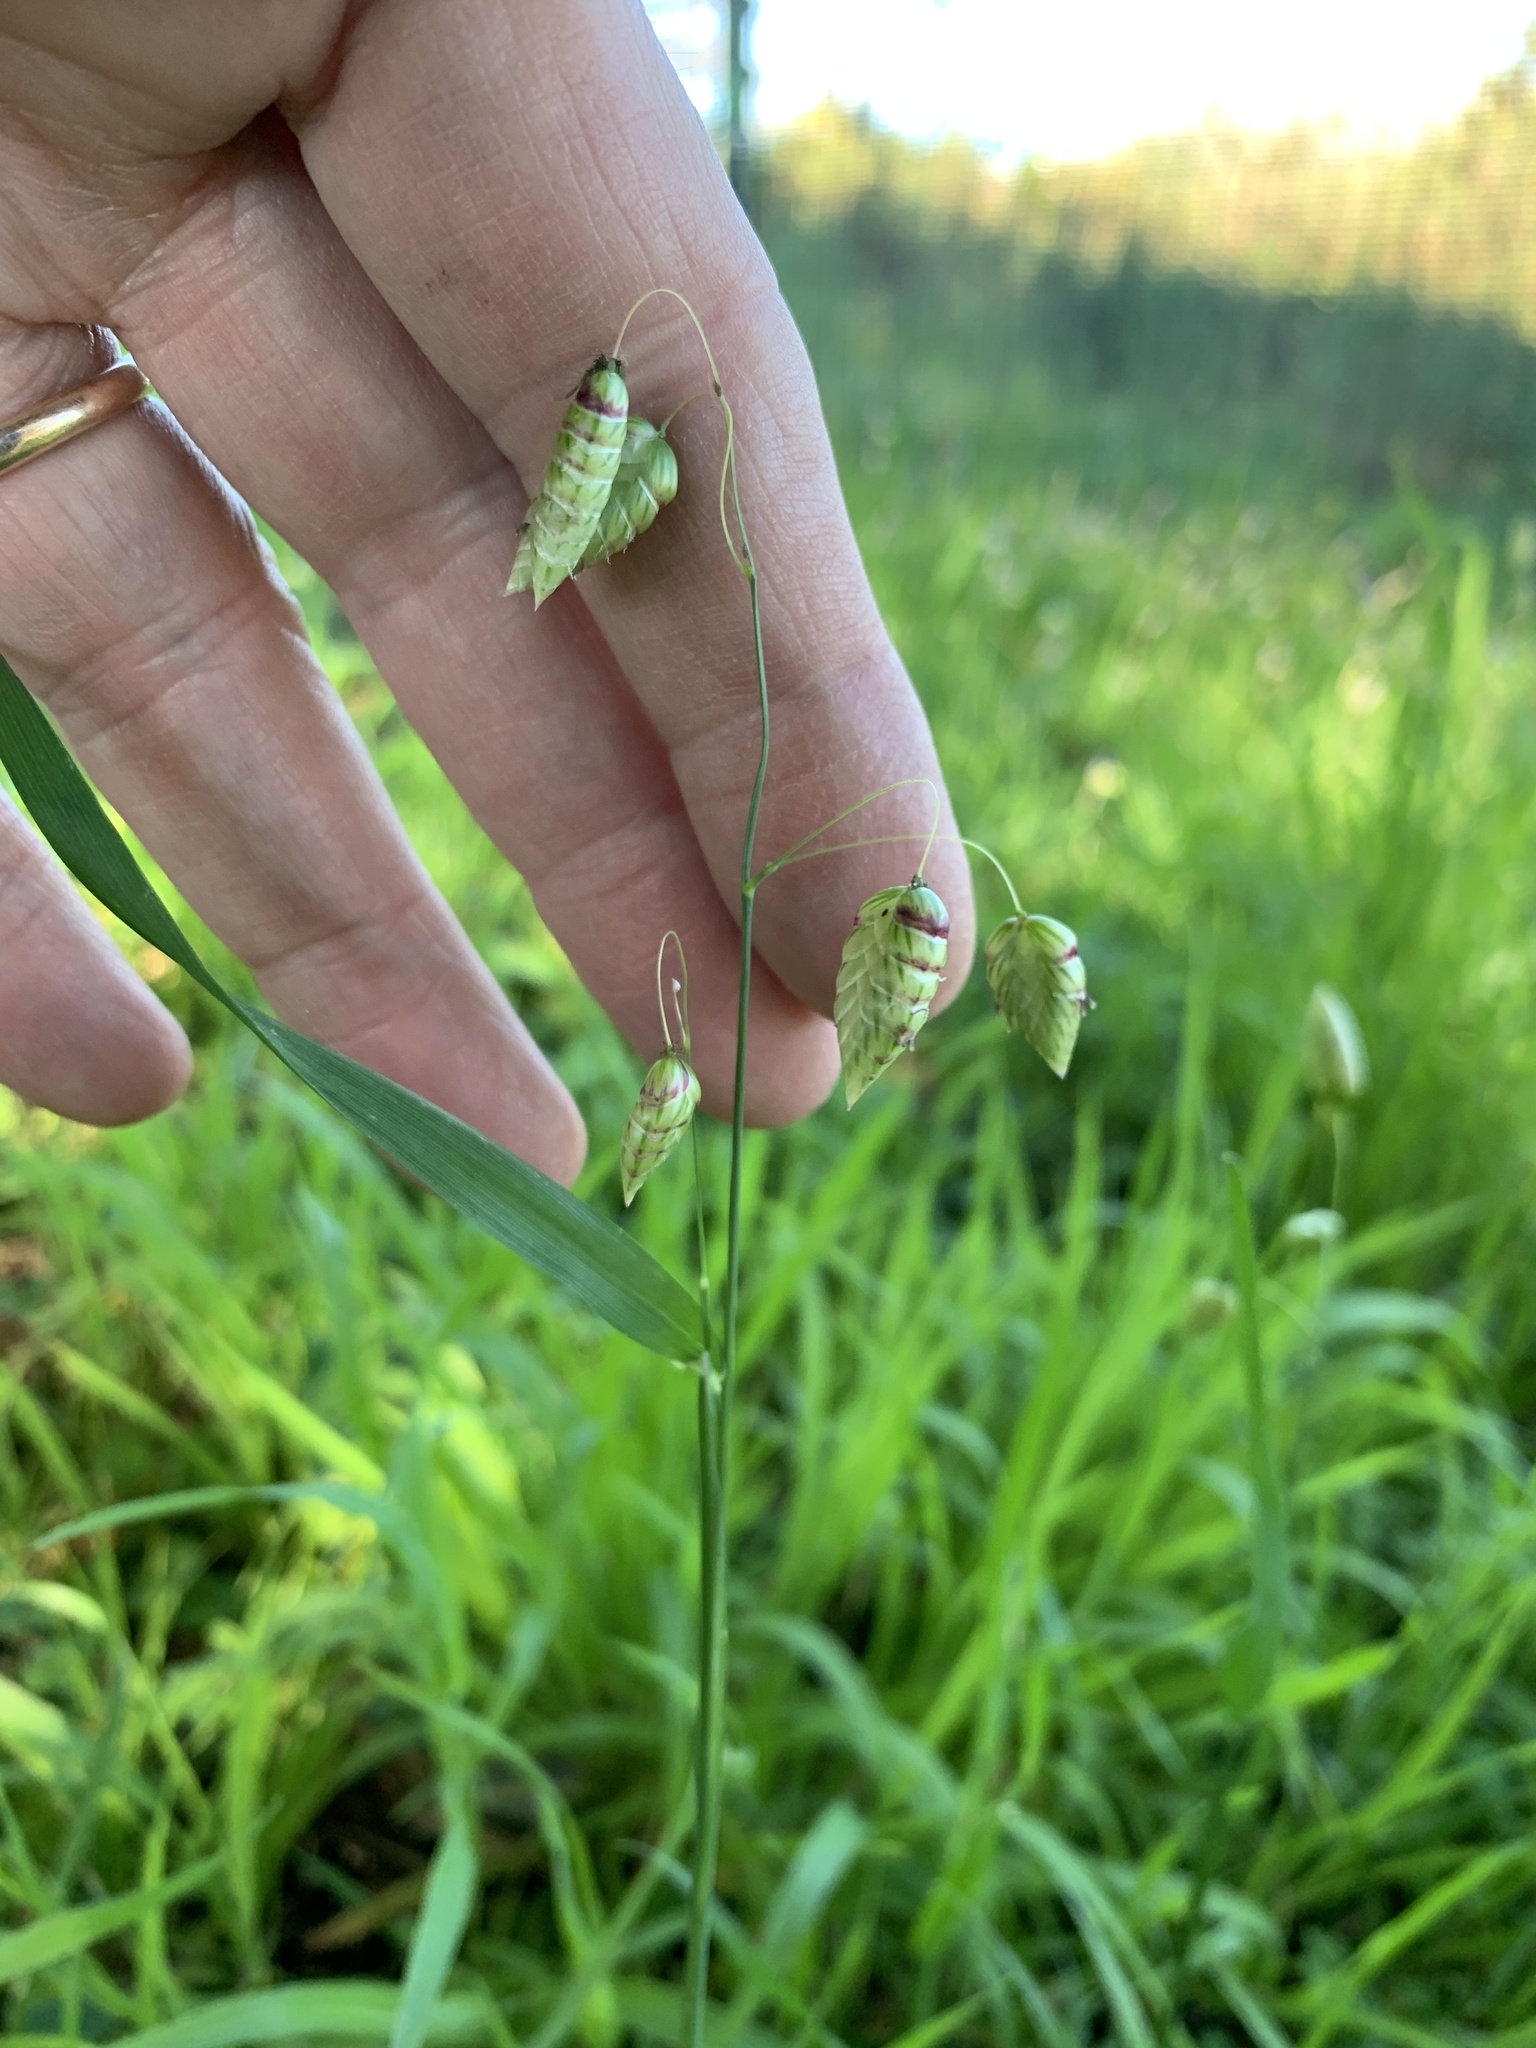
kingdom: Plantae
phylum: Tracheophyta
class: Liliopsida
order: Poales
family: Poaceae
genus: Briza
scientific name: Briza maxima
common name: Big quakinggrass
